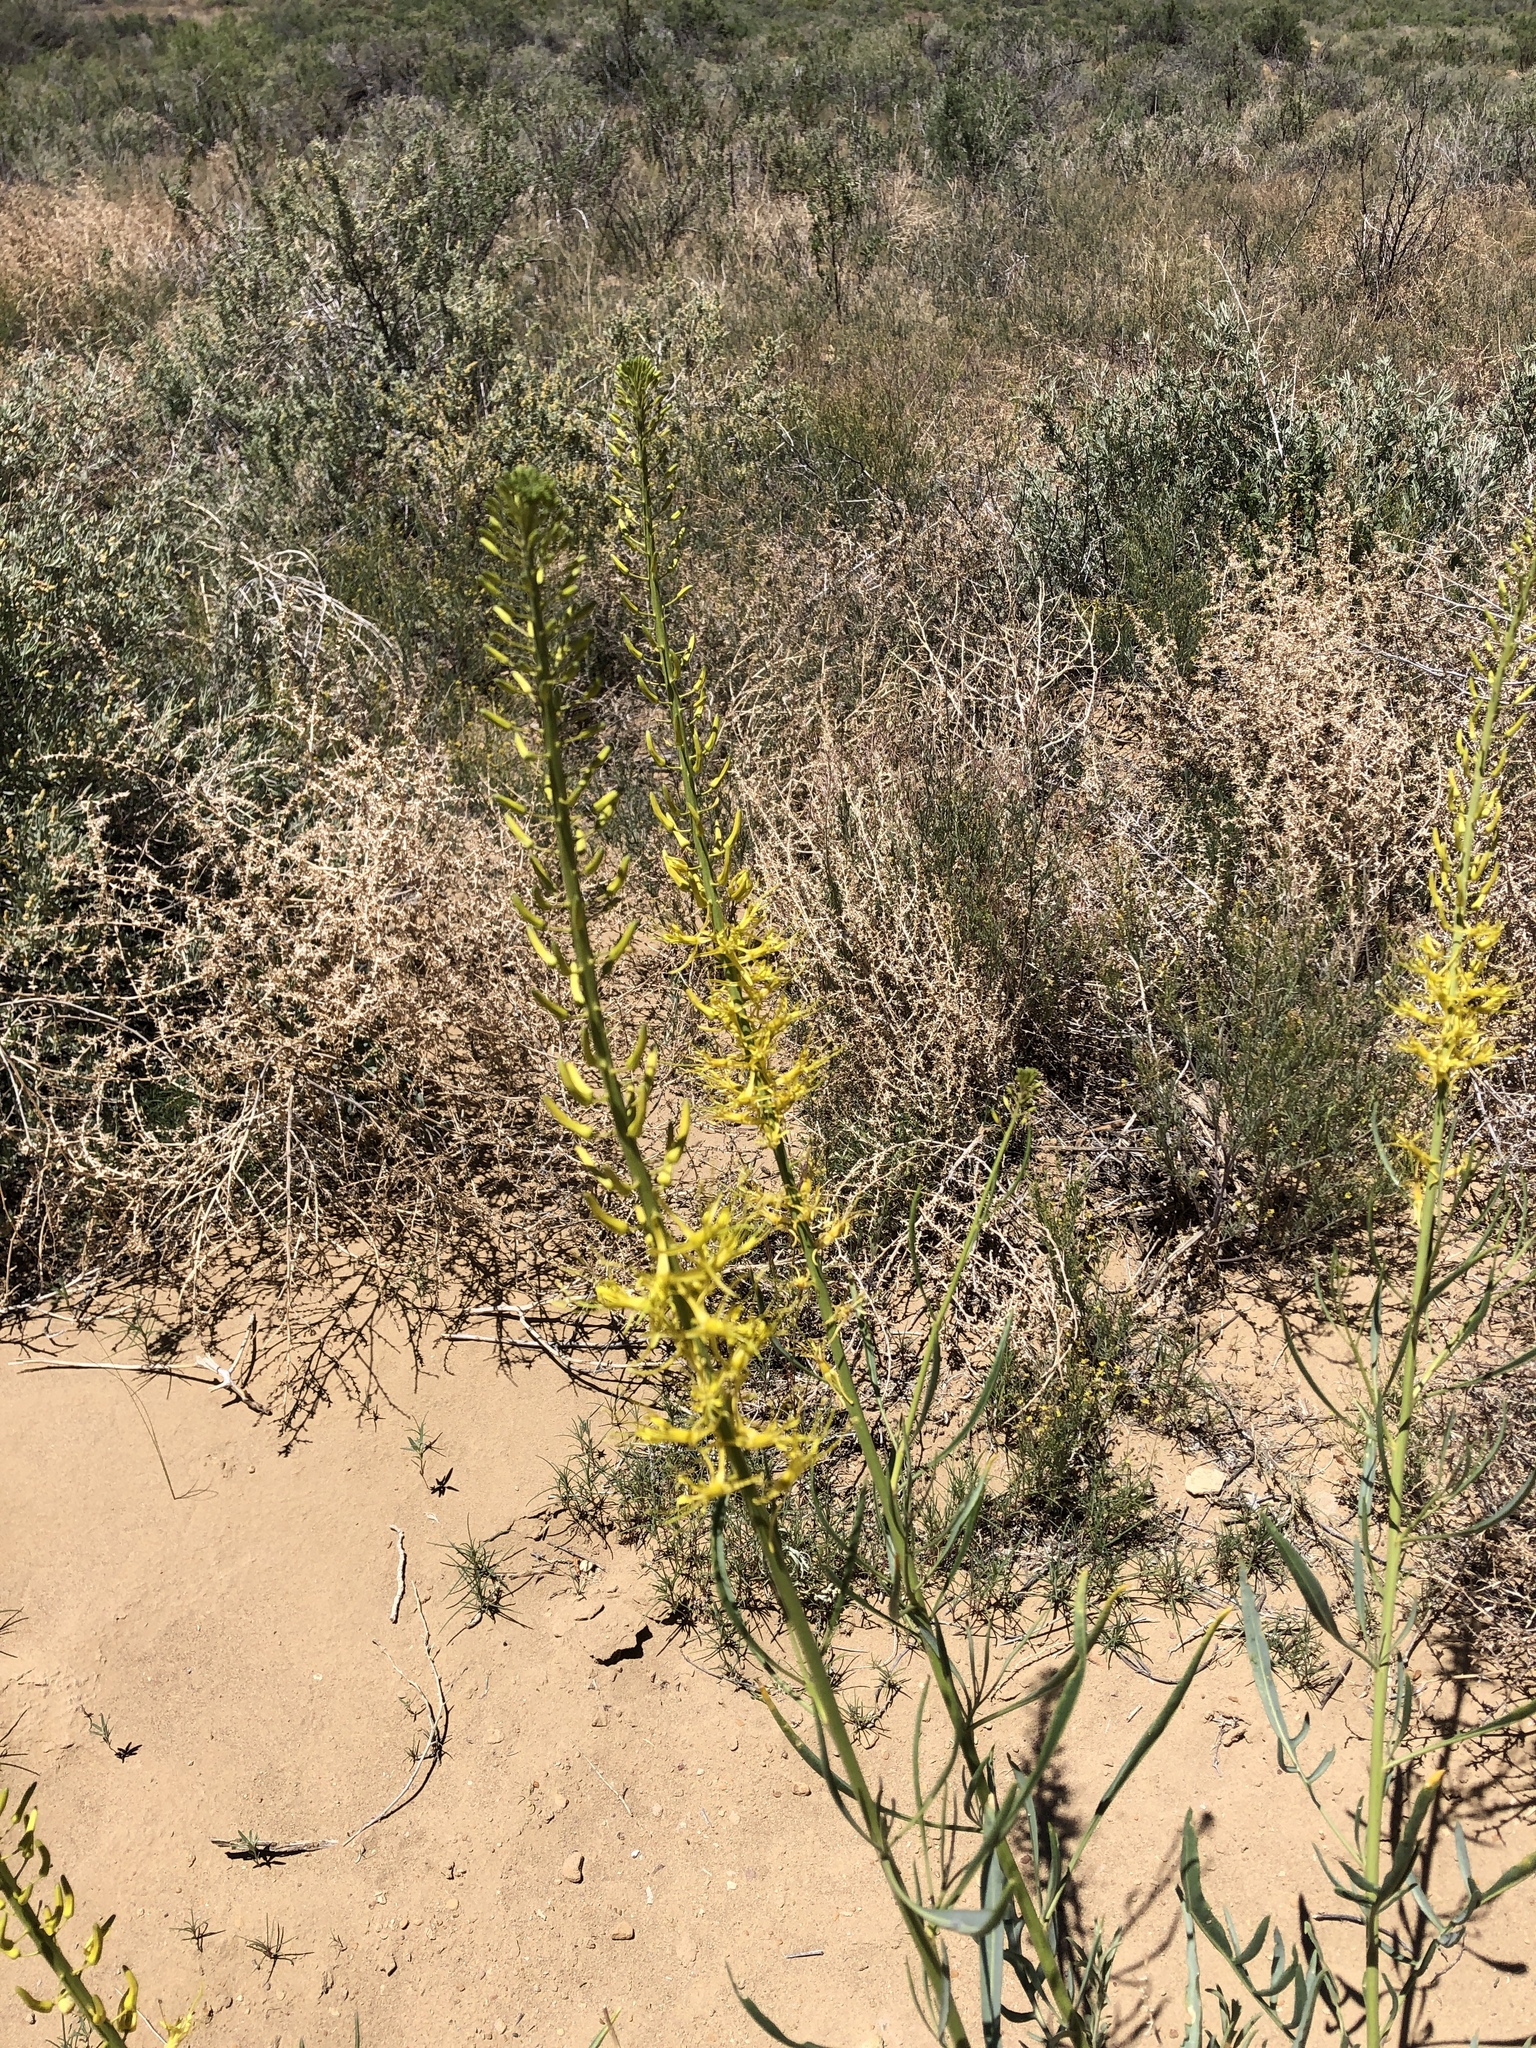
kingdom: Plantae
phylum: Tracheophyta
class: Magnoliopsida
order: Brassicales
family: Brassicaceae
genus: Stanleya
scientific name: Stanleya pinnata
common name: Prince's-plume
